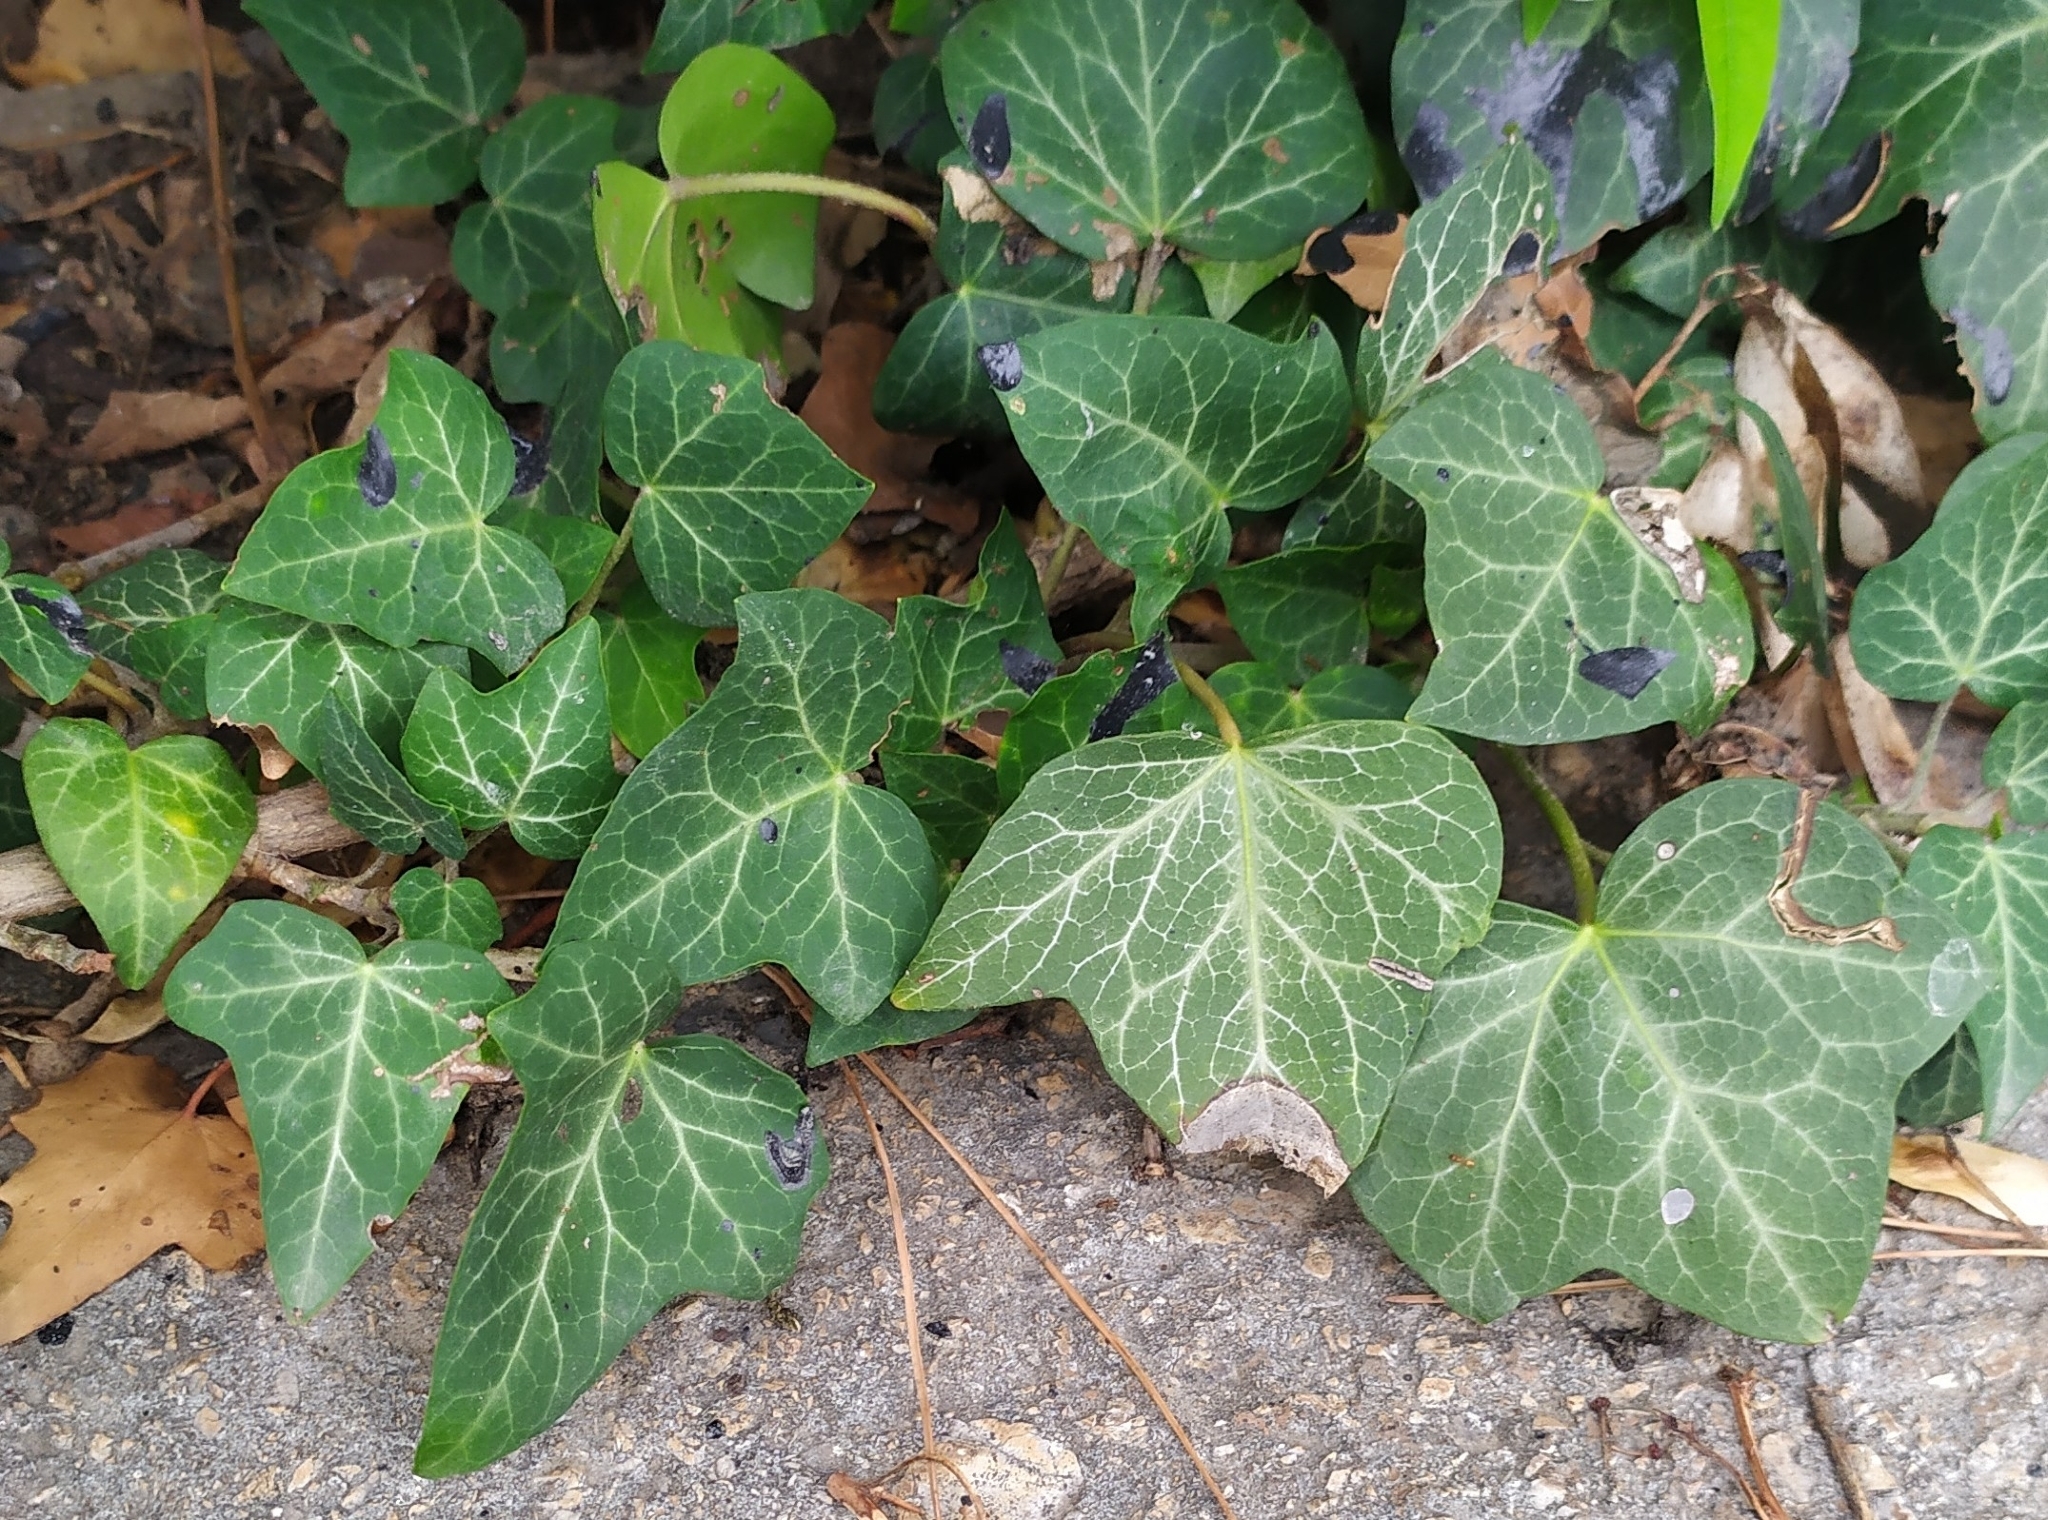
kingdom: Plantae
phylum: Tracheophyta
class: Magnoliopsida
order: Apiales
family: Araliaceae
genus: Hedera
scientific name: Hedera helix
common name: Ivy
